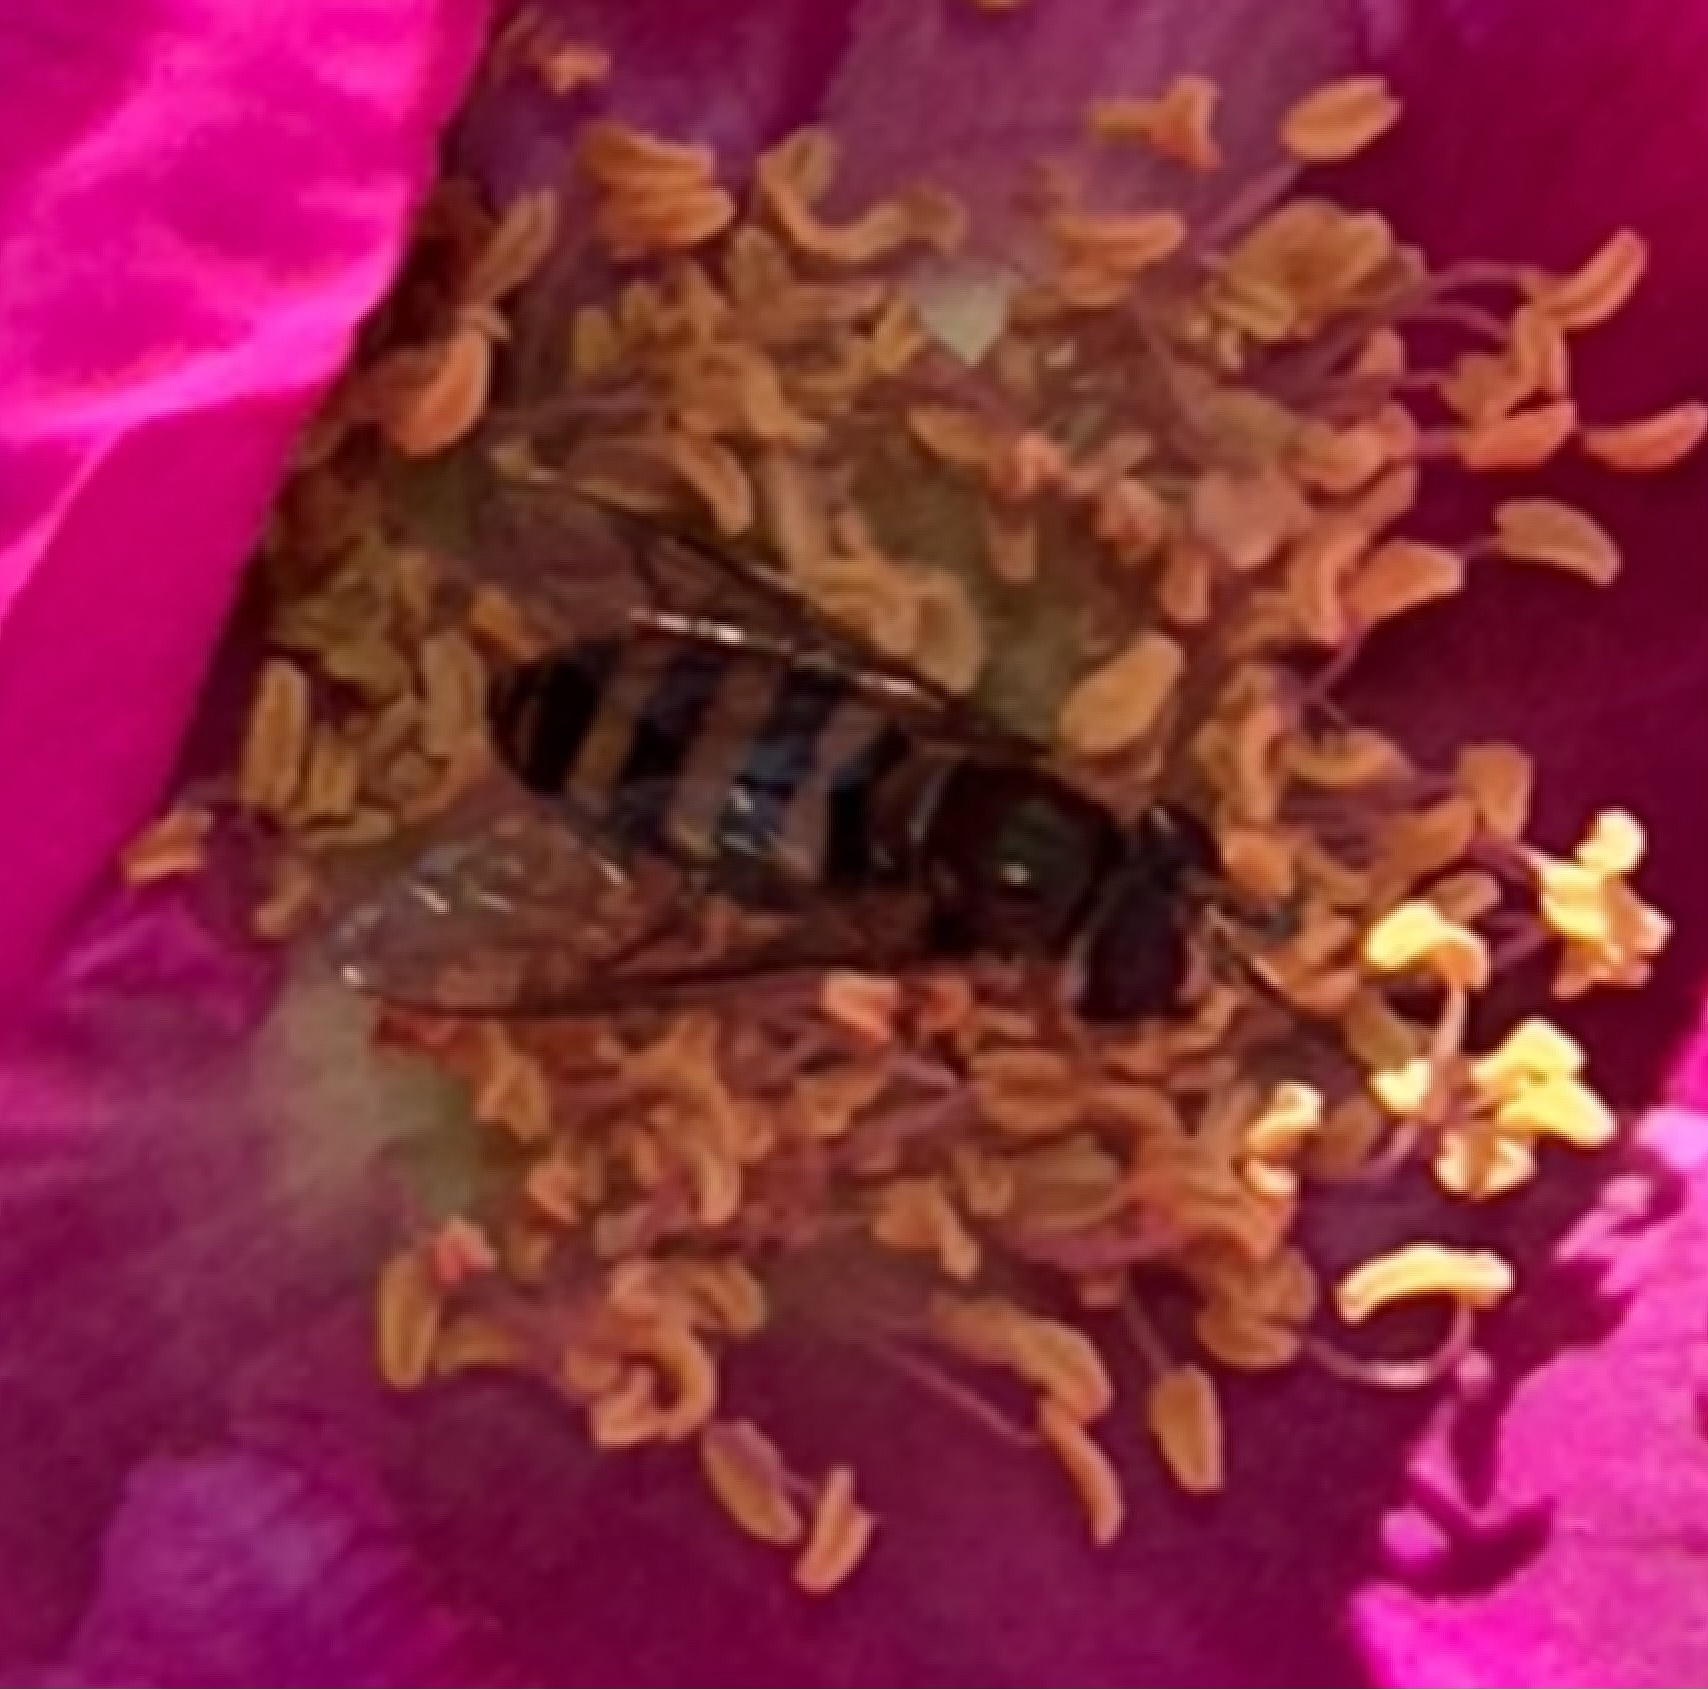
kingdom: Animalia
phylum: Arthropoda
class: Insecta
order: Diptera
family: Syrphidae
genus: Eupeodes
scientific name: Eupeodes
